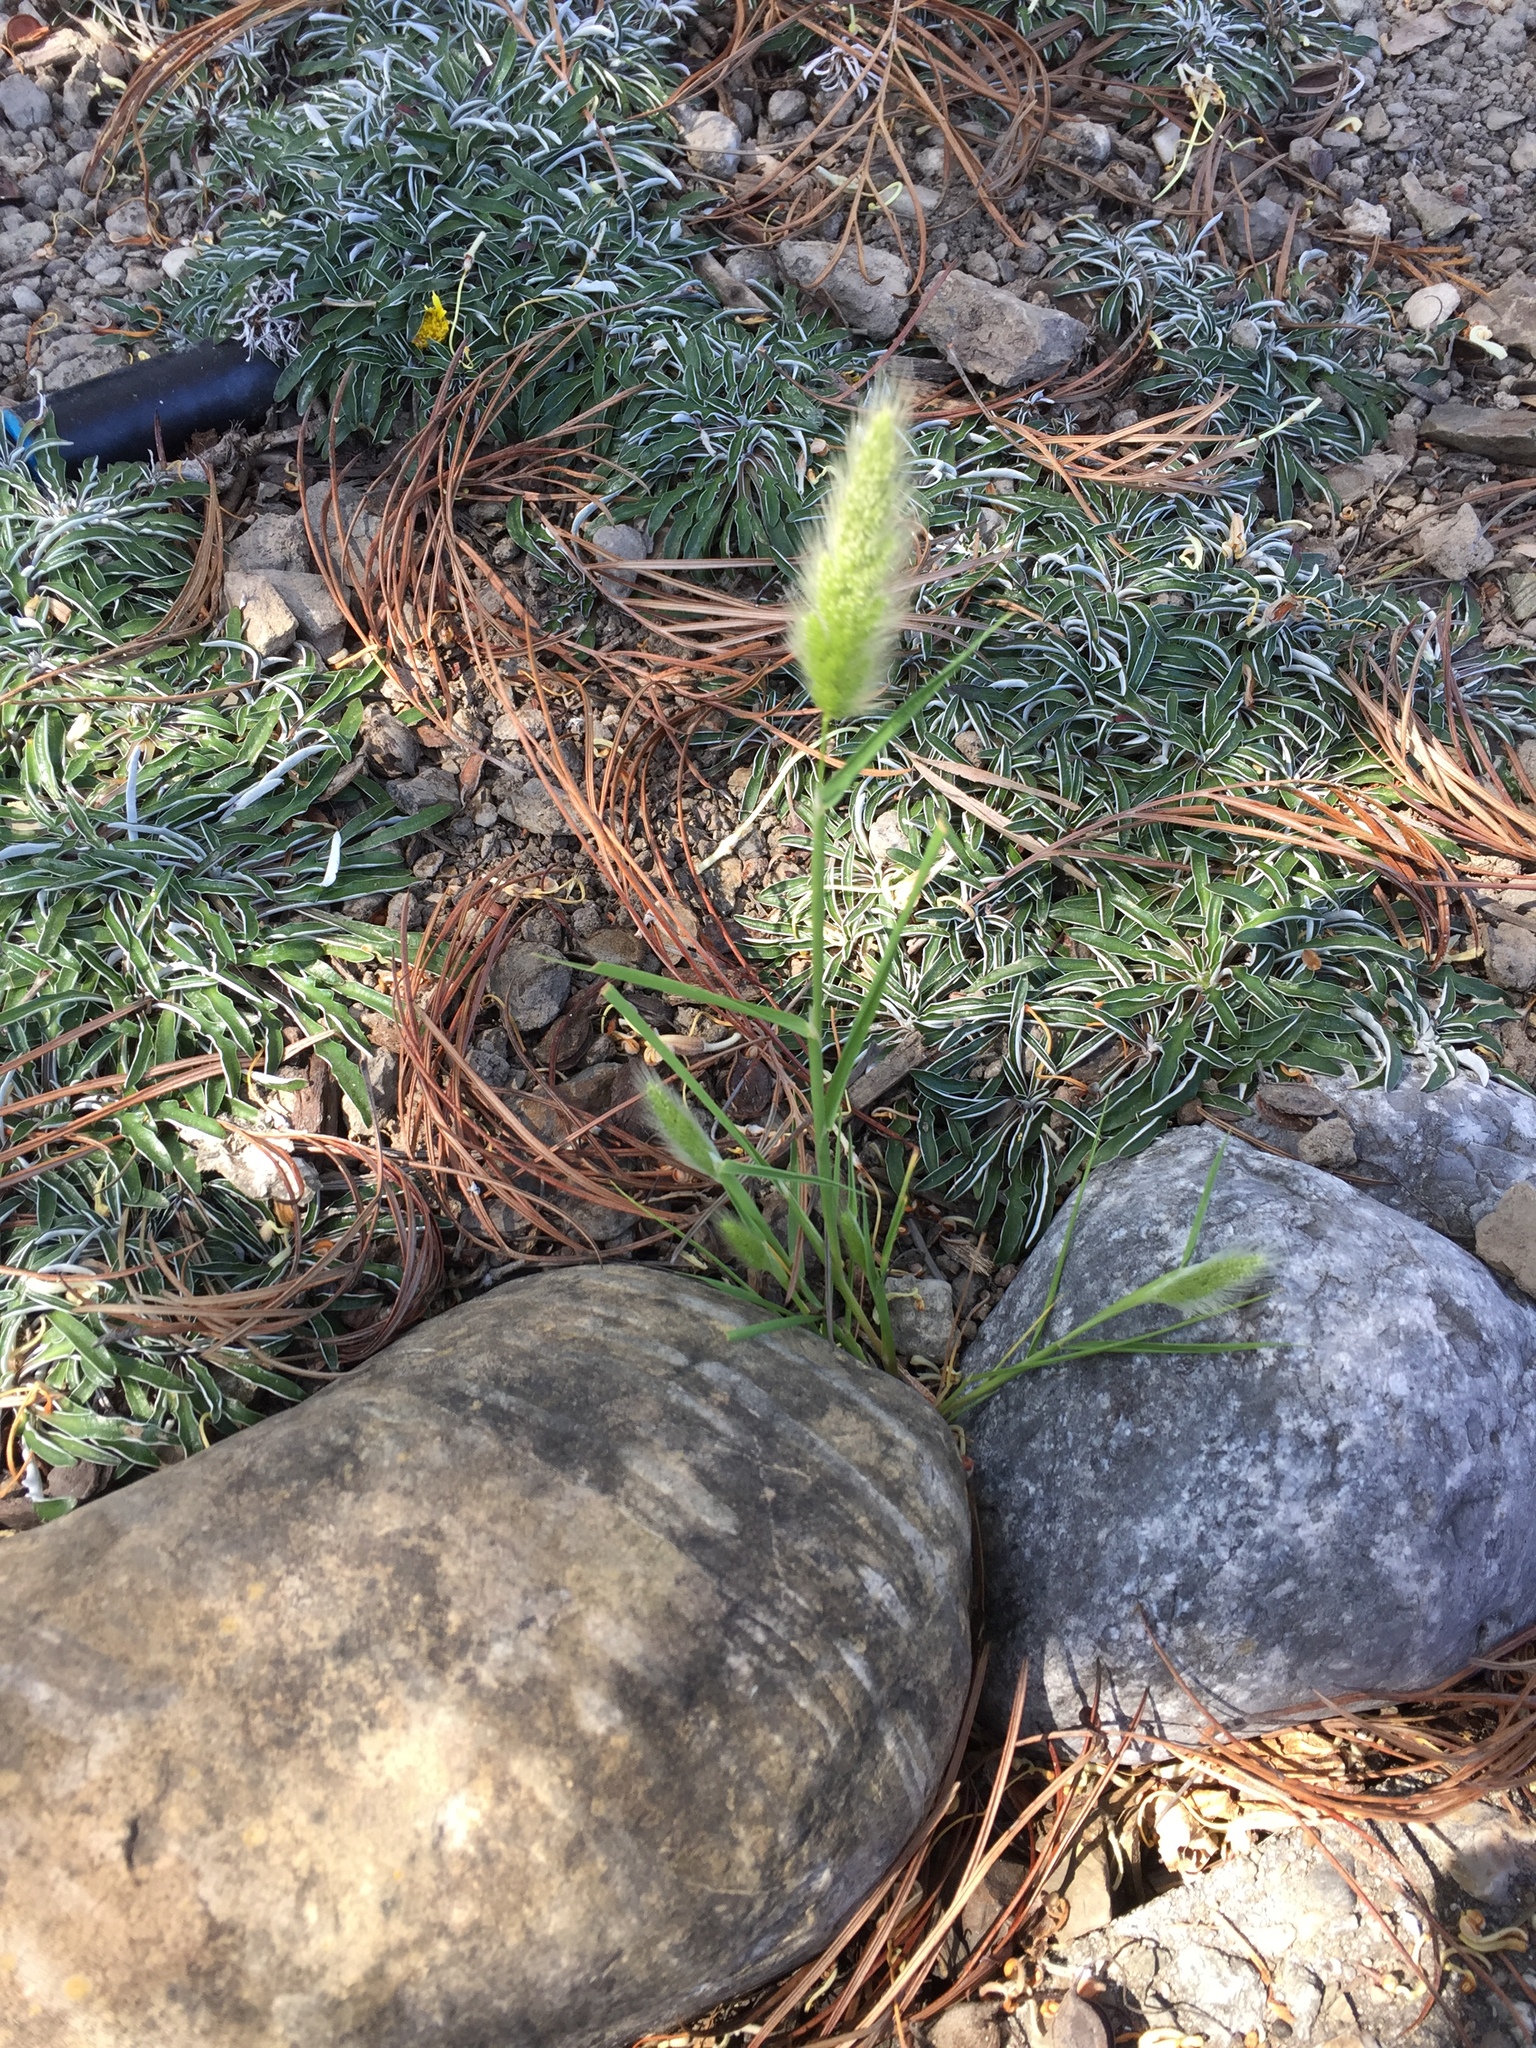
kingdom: Plantae
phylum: Tracheophyta
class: Liliopsida
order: Poales
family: Poaceae
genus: Polypogon
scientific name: Polypogon monspeliensis
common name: Annual rabbitsfoot grass
